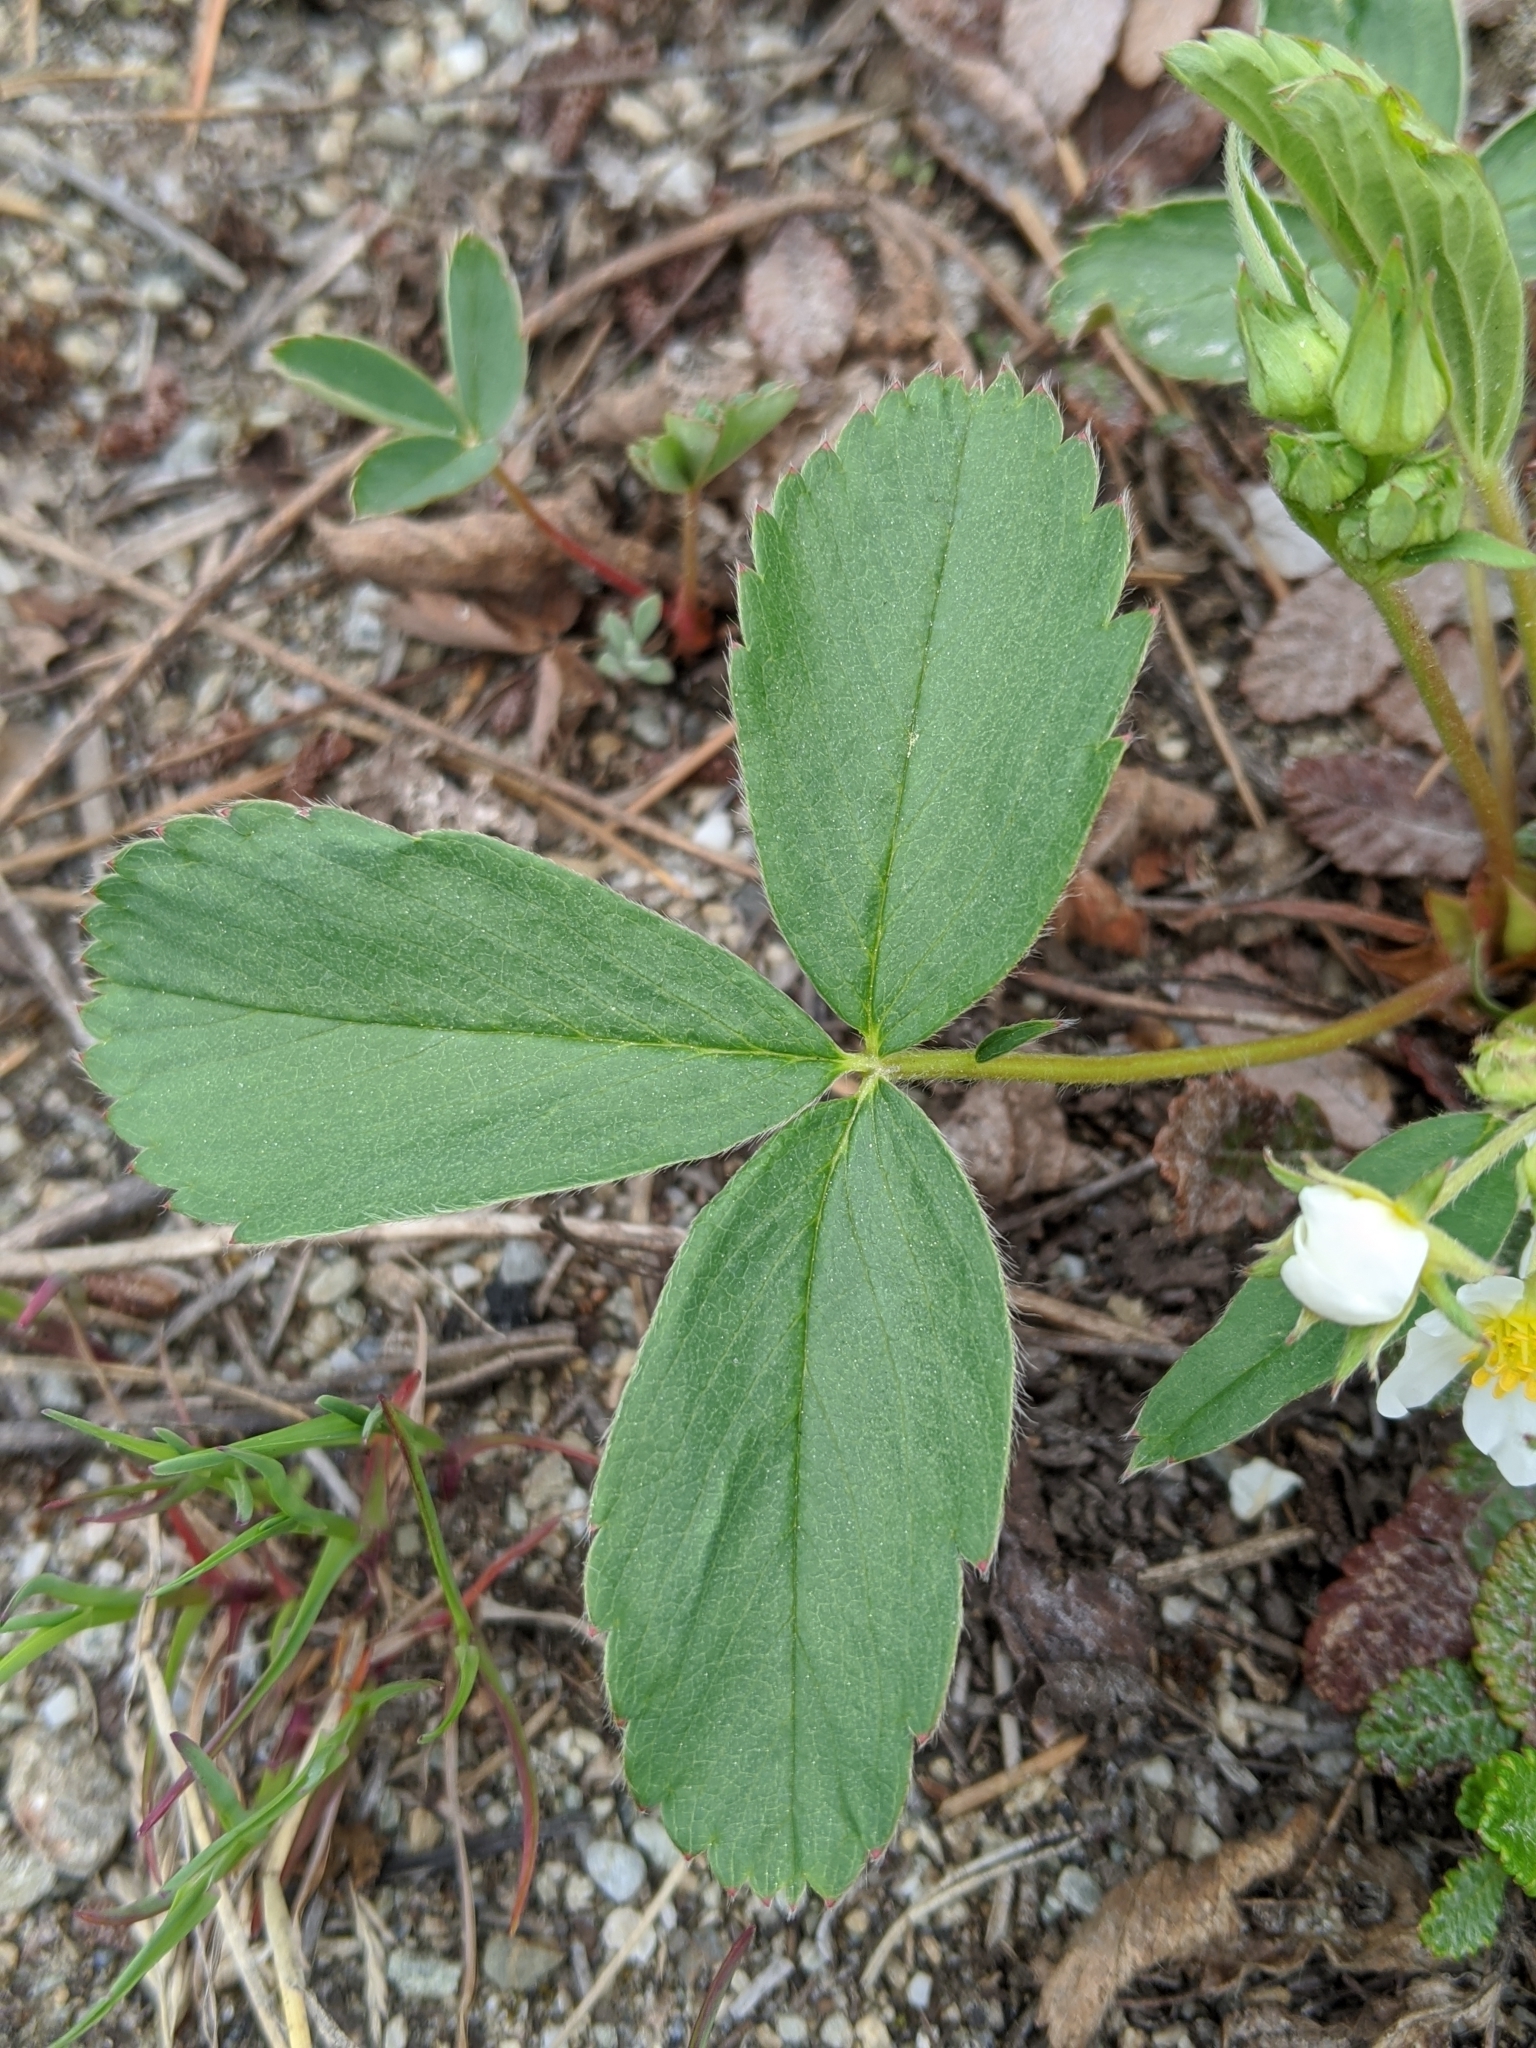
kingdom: Plantae
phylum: Tracheophyta
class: Magnoliopsida
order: Rosales
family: Rosaceae
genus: Fragaria
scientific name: Fragaria virginiana
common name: Thickleaved wild strawberry
